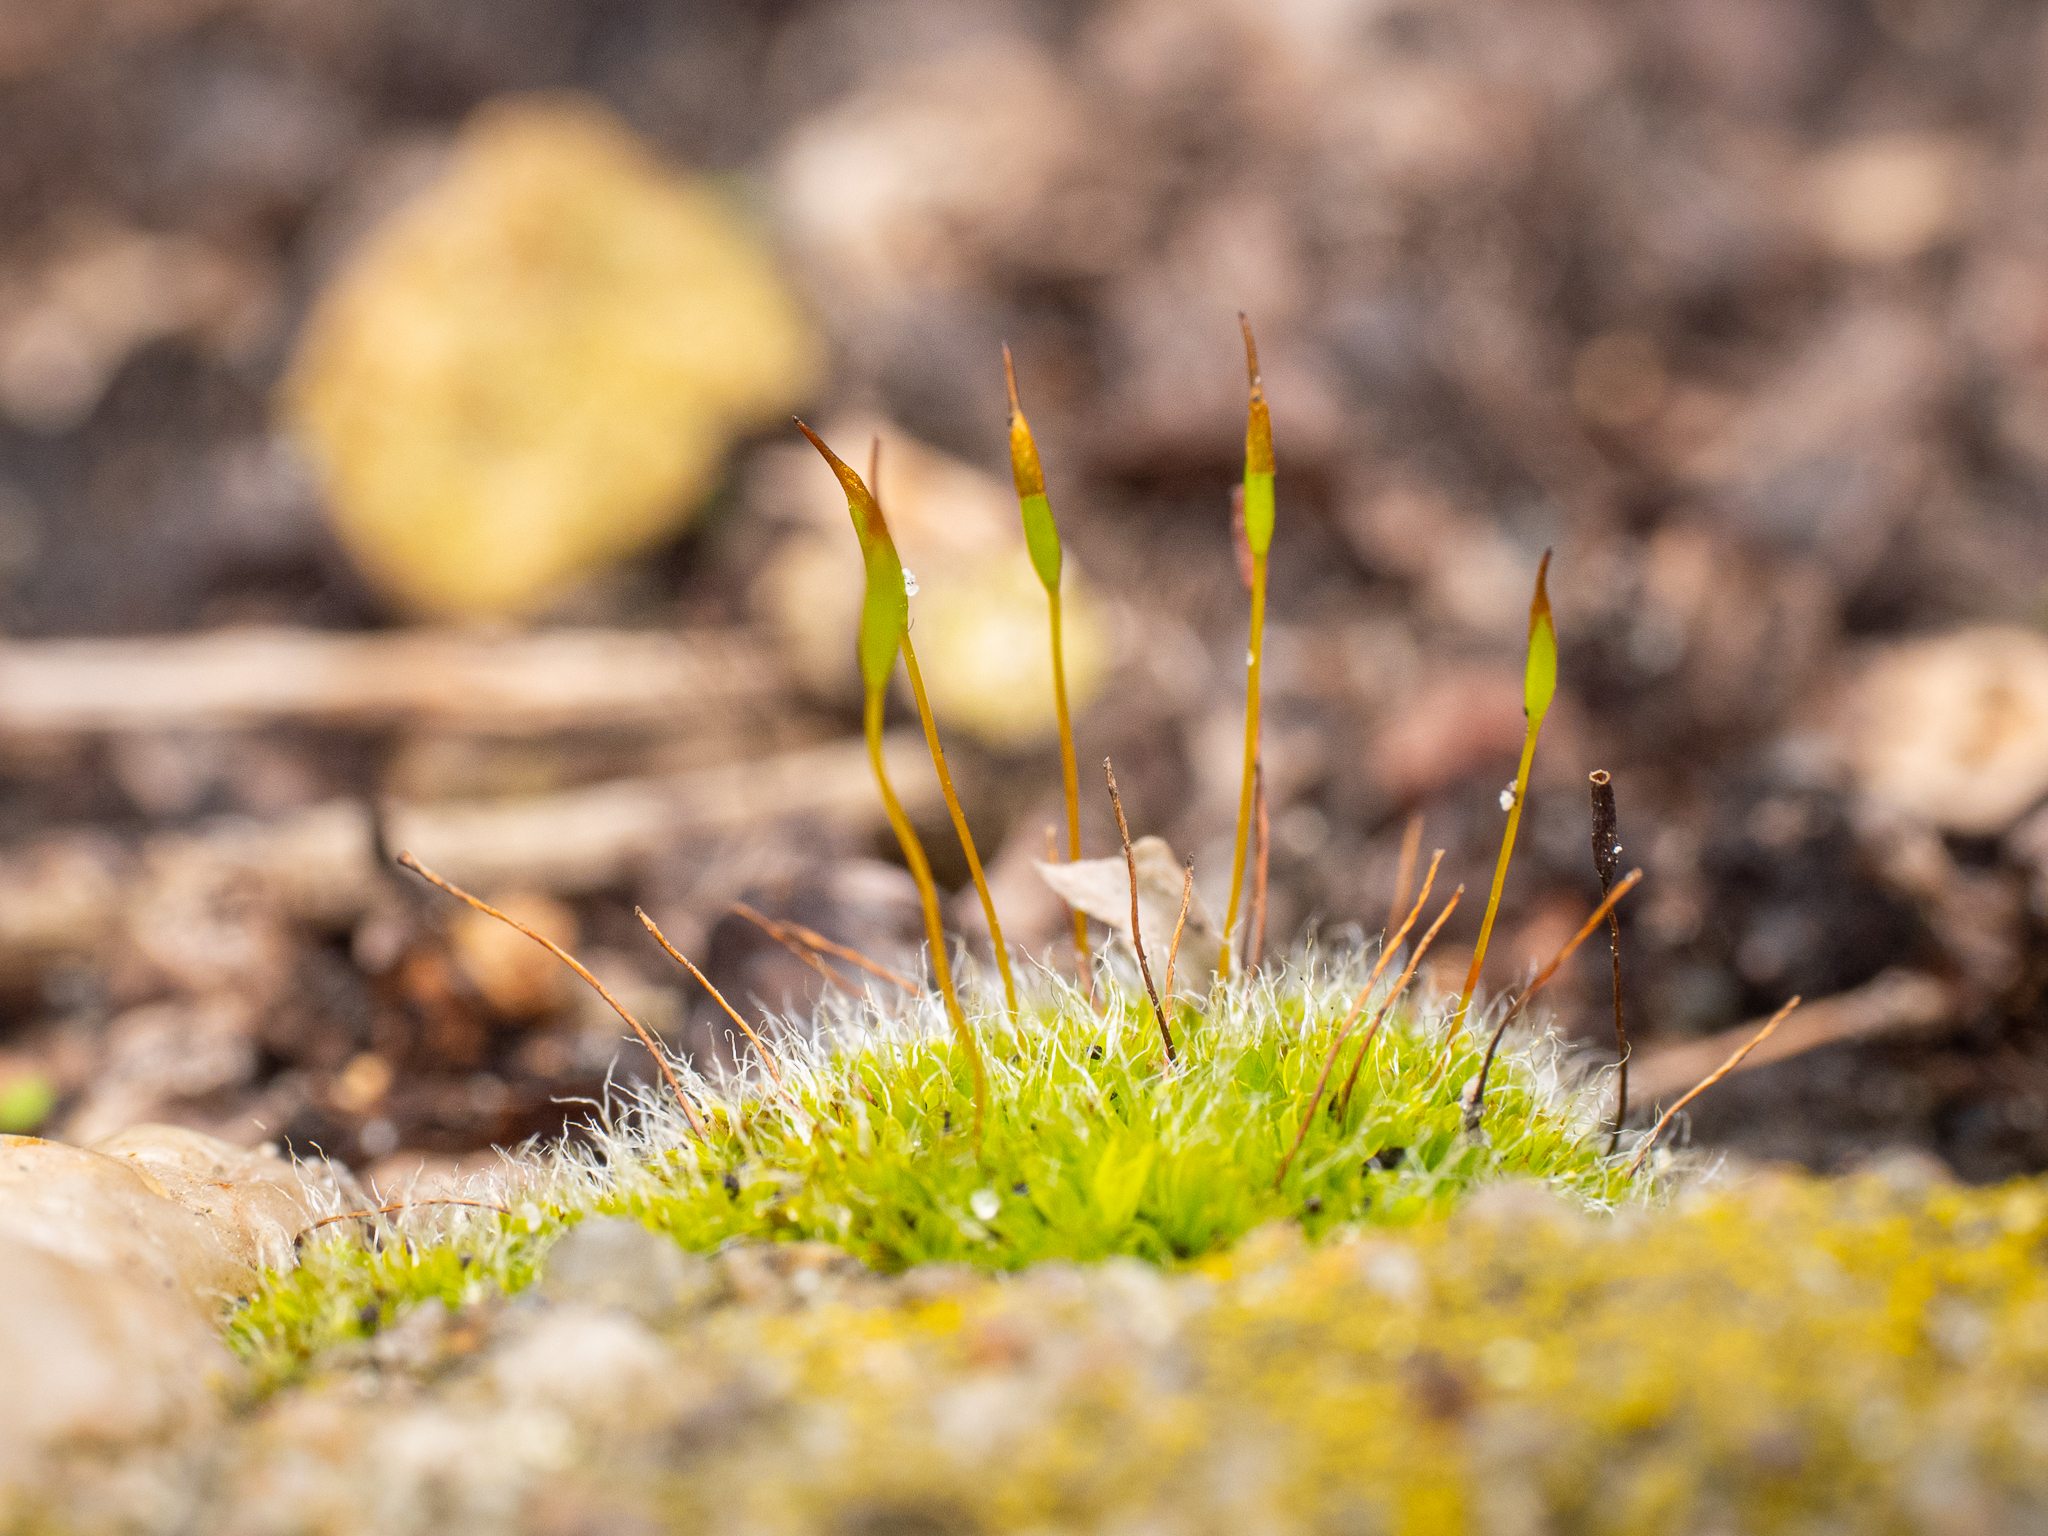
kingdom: Plantae
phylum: Bryophyta
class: Bryopsida
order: Pottiales
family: Pottiaceae
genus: Tortula
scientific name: Tortula muralis
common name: Wall screw-moss
